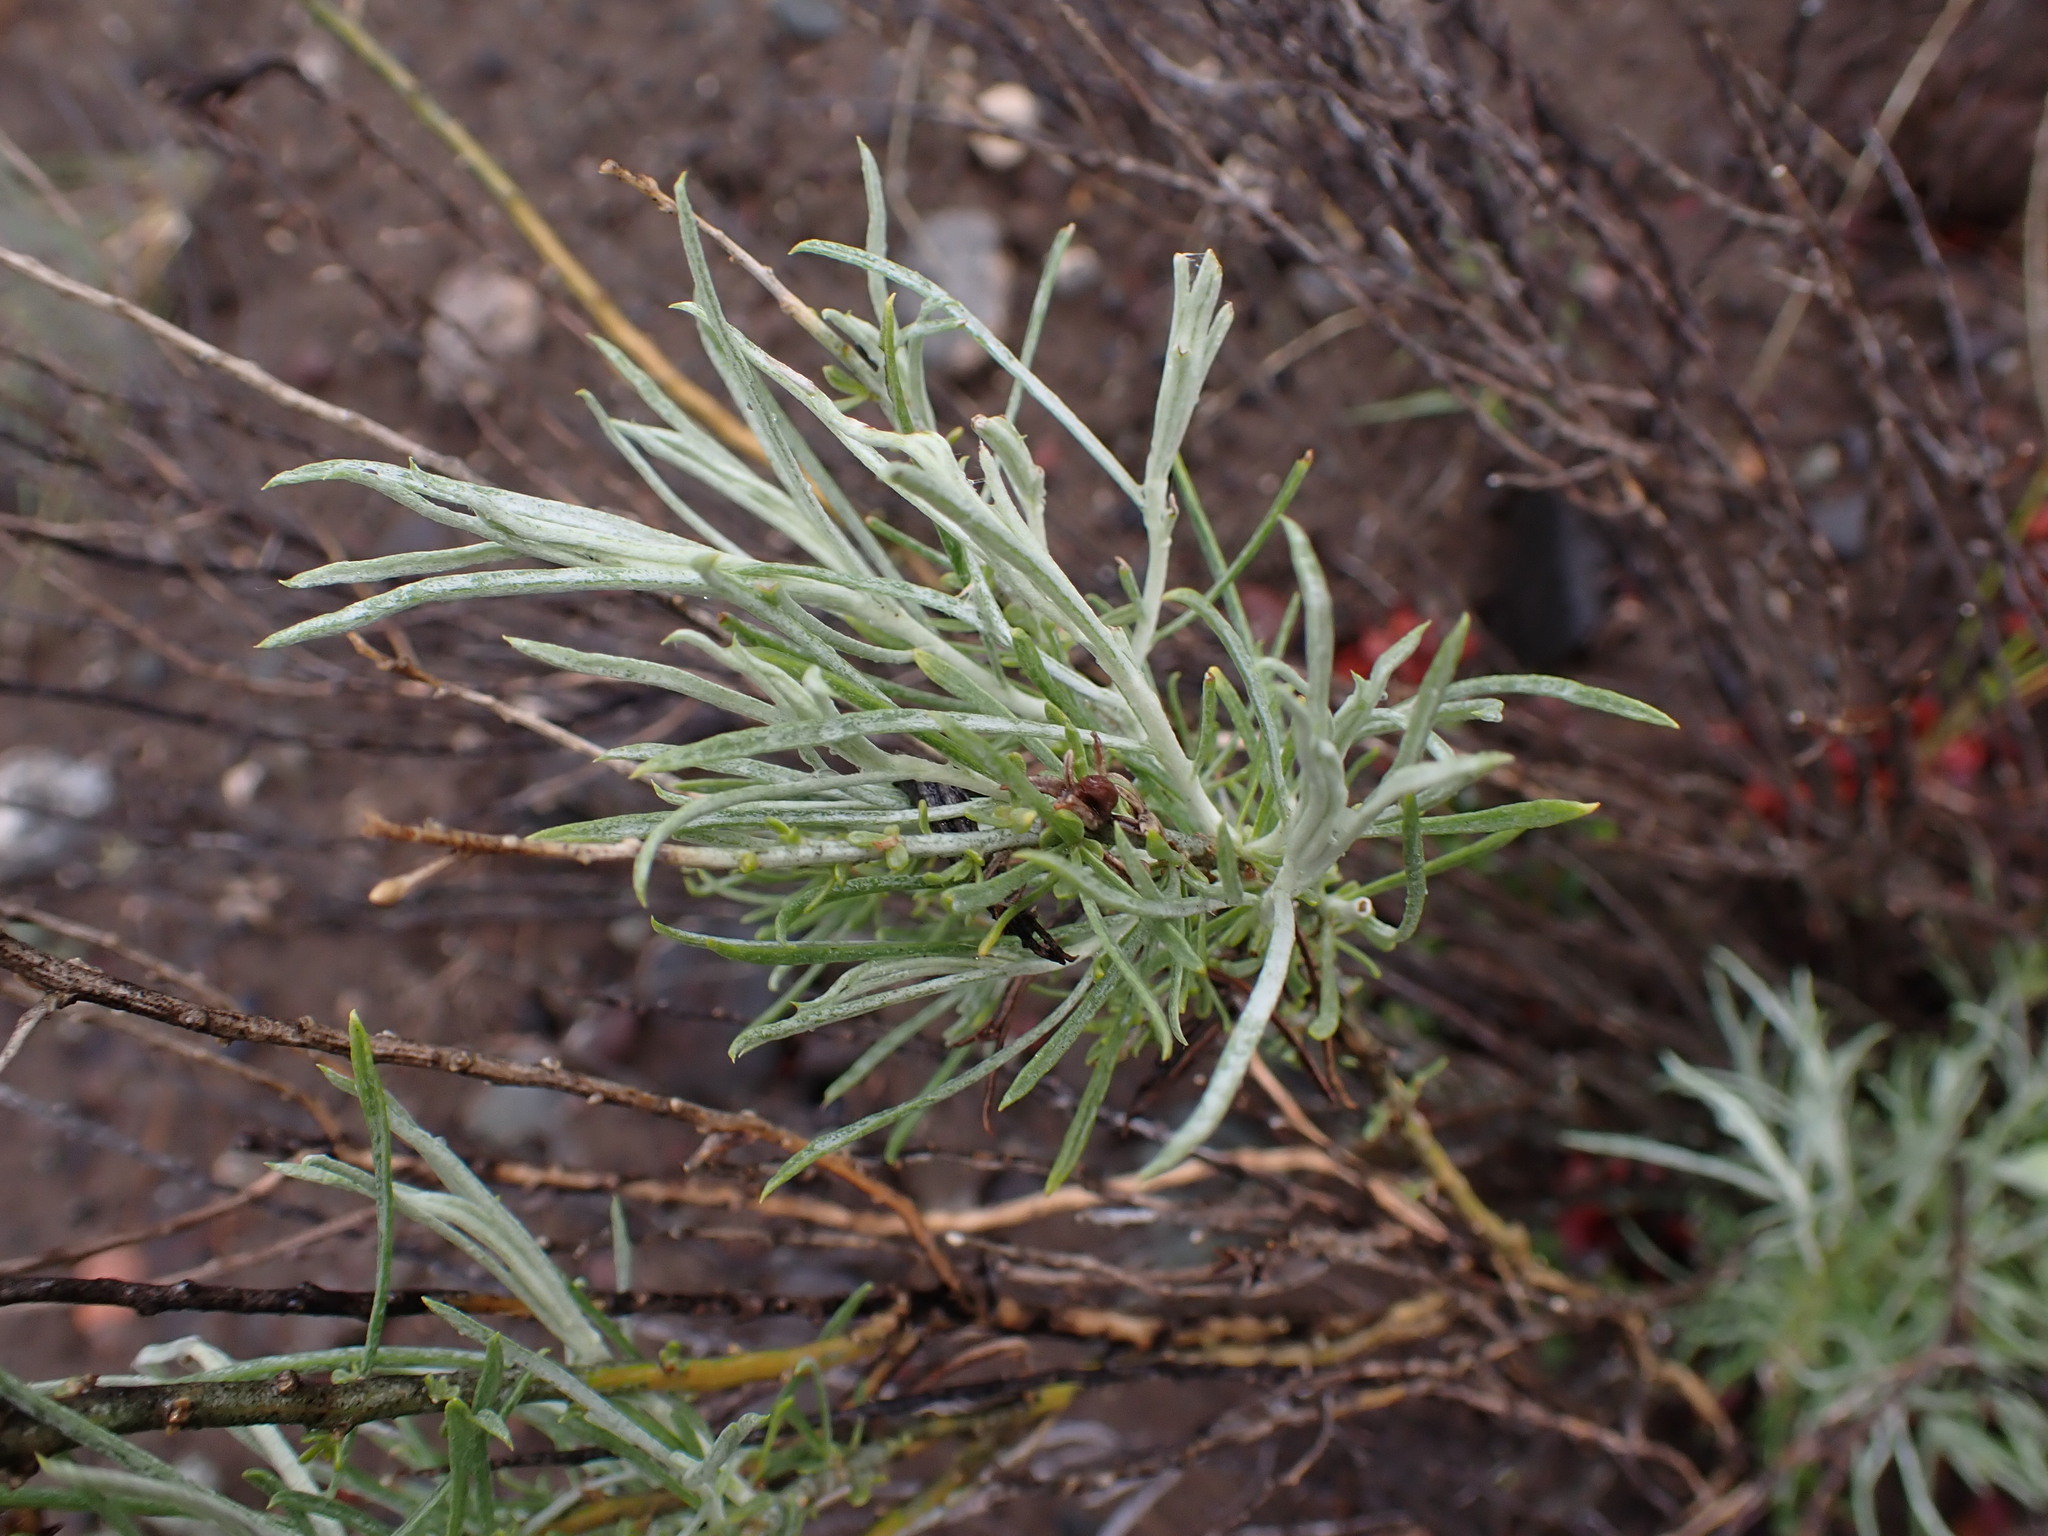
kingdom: Plantae
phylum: Tracheophyta
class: Magnoliopsida
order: Asterales
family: Asteraceae
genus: Ericameria
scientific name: Ericameria nauseosa
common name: Rubber rabbitbrush
